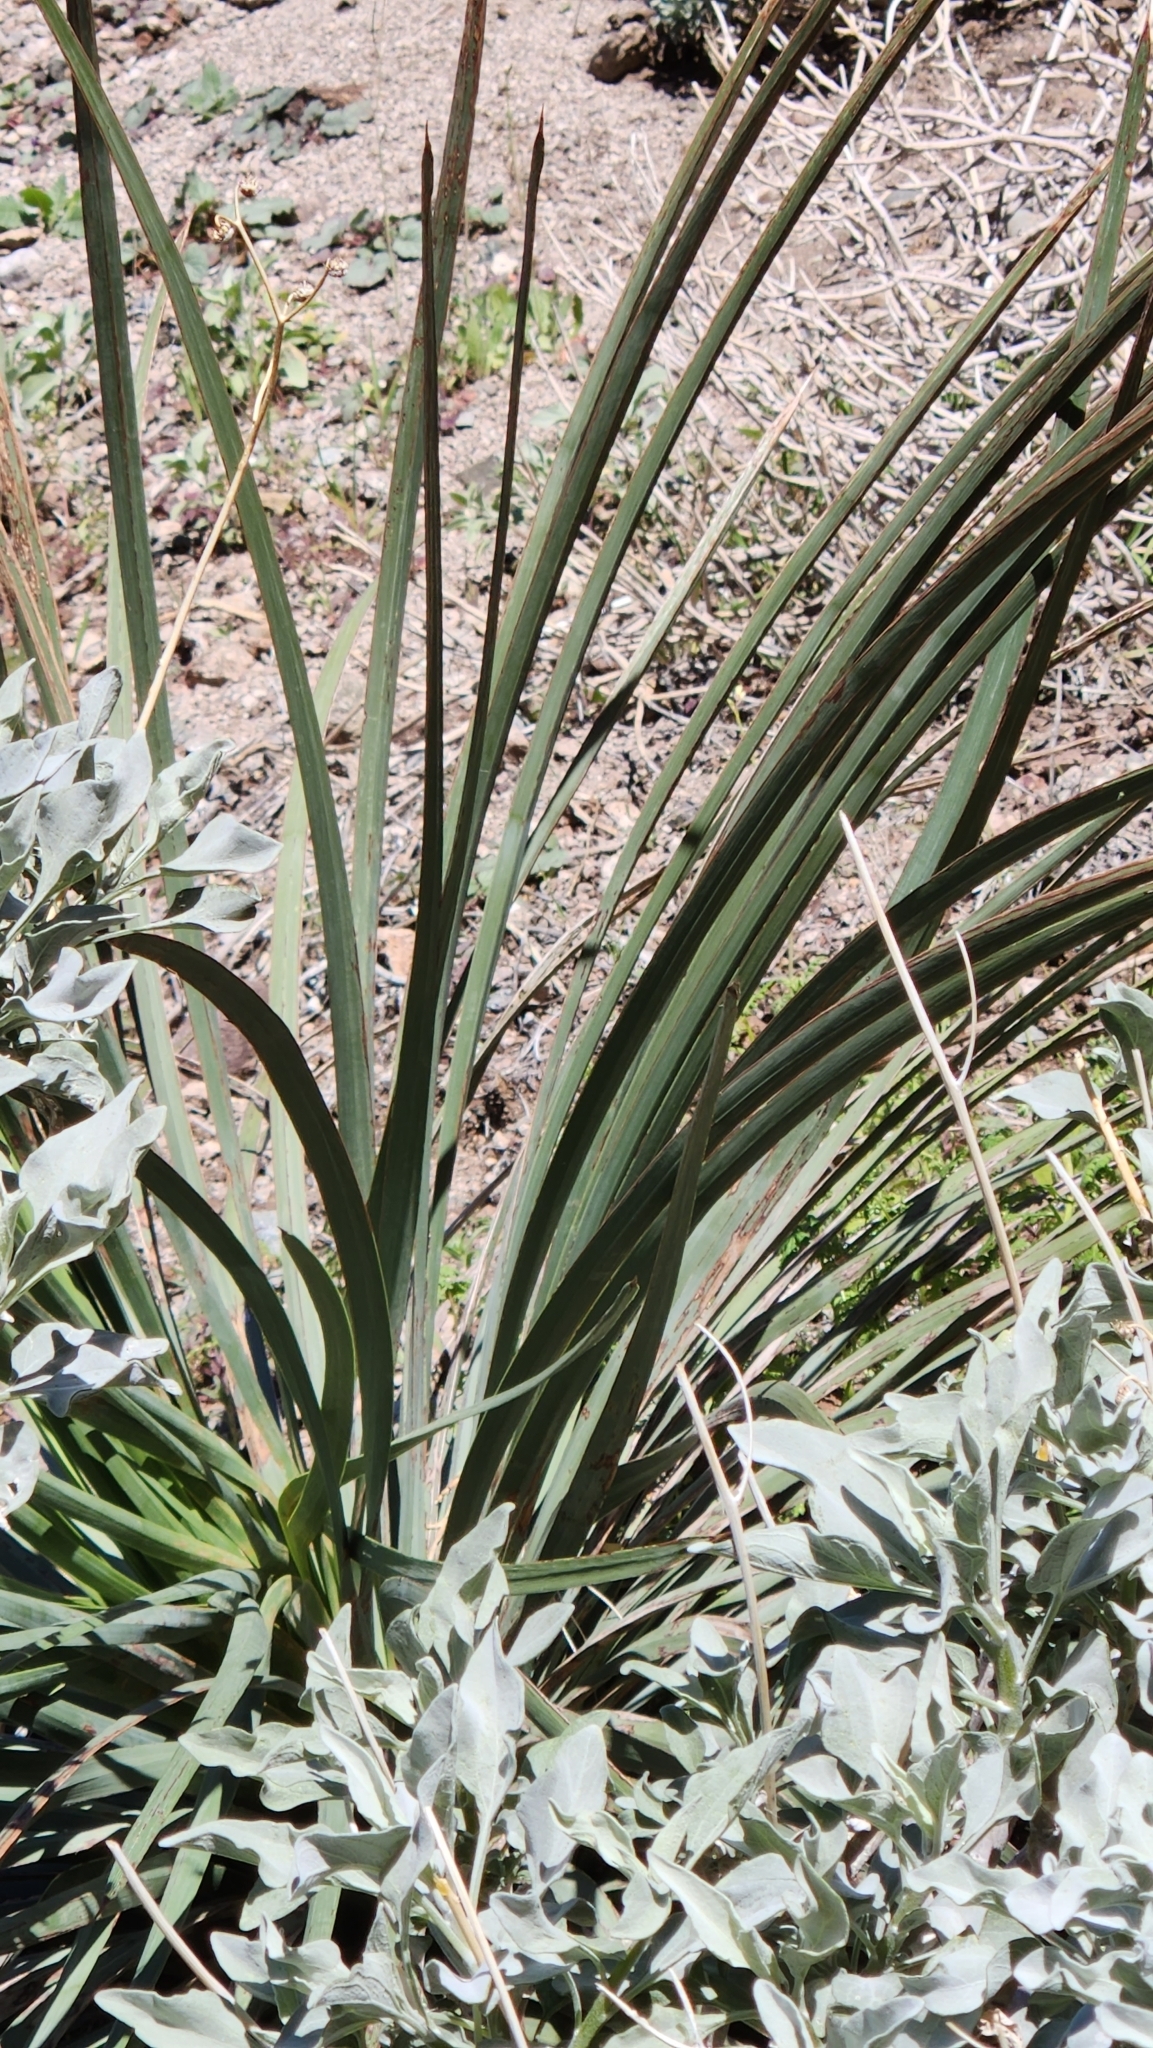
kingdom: Plantae
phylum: Tracheophyta
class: Liliopsida
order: Asparagales
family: Asparagaceae
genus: Hesperoyucca
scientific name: Hesperoyucca whipplei
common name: Our lord's-candle
